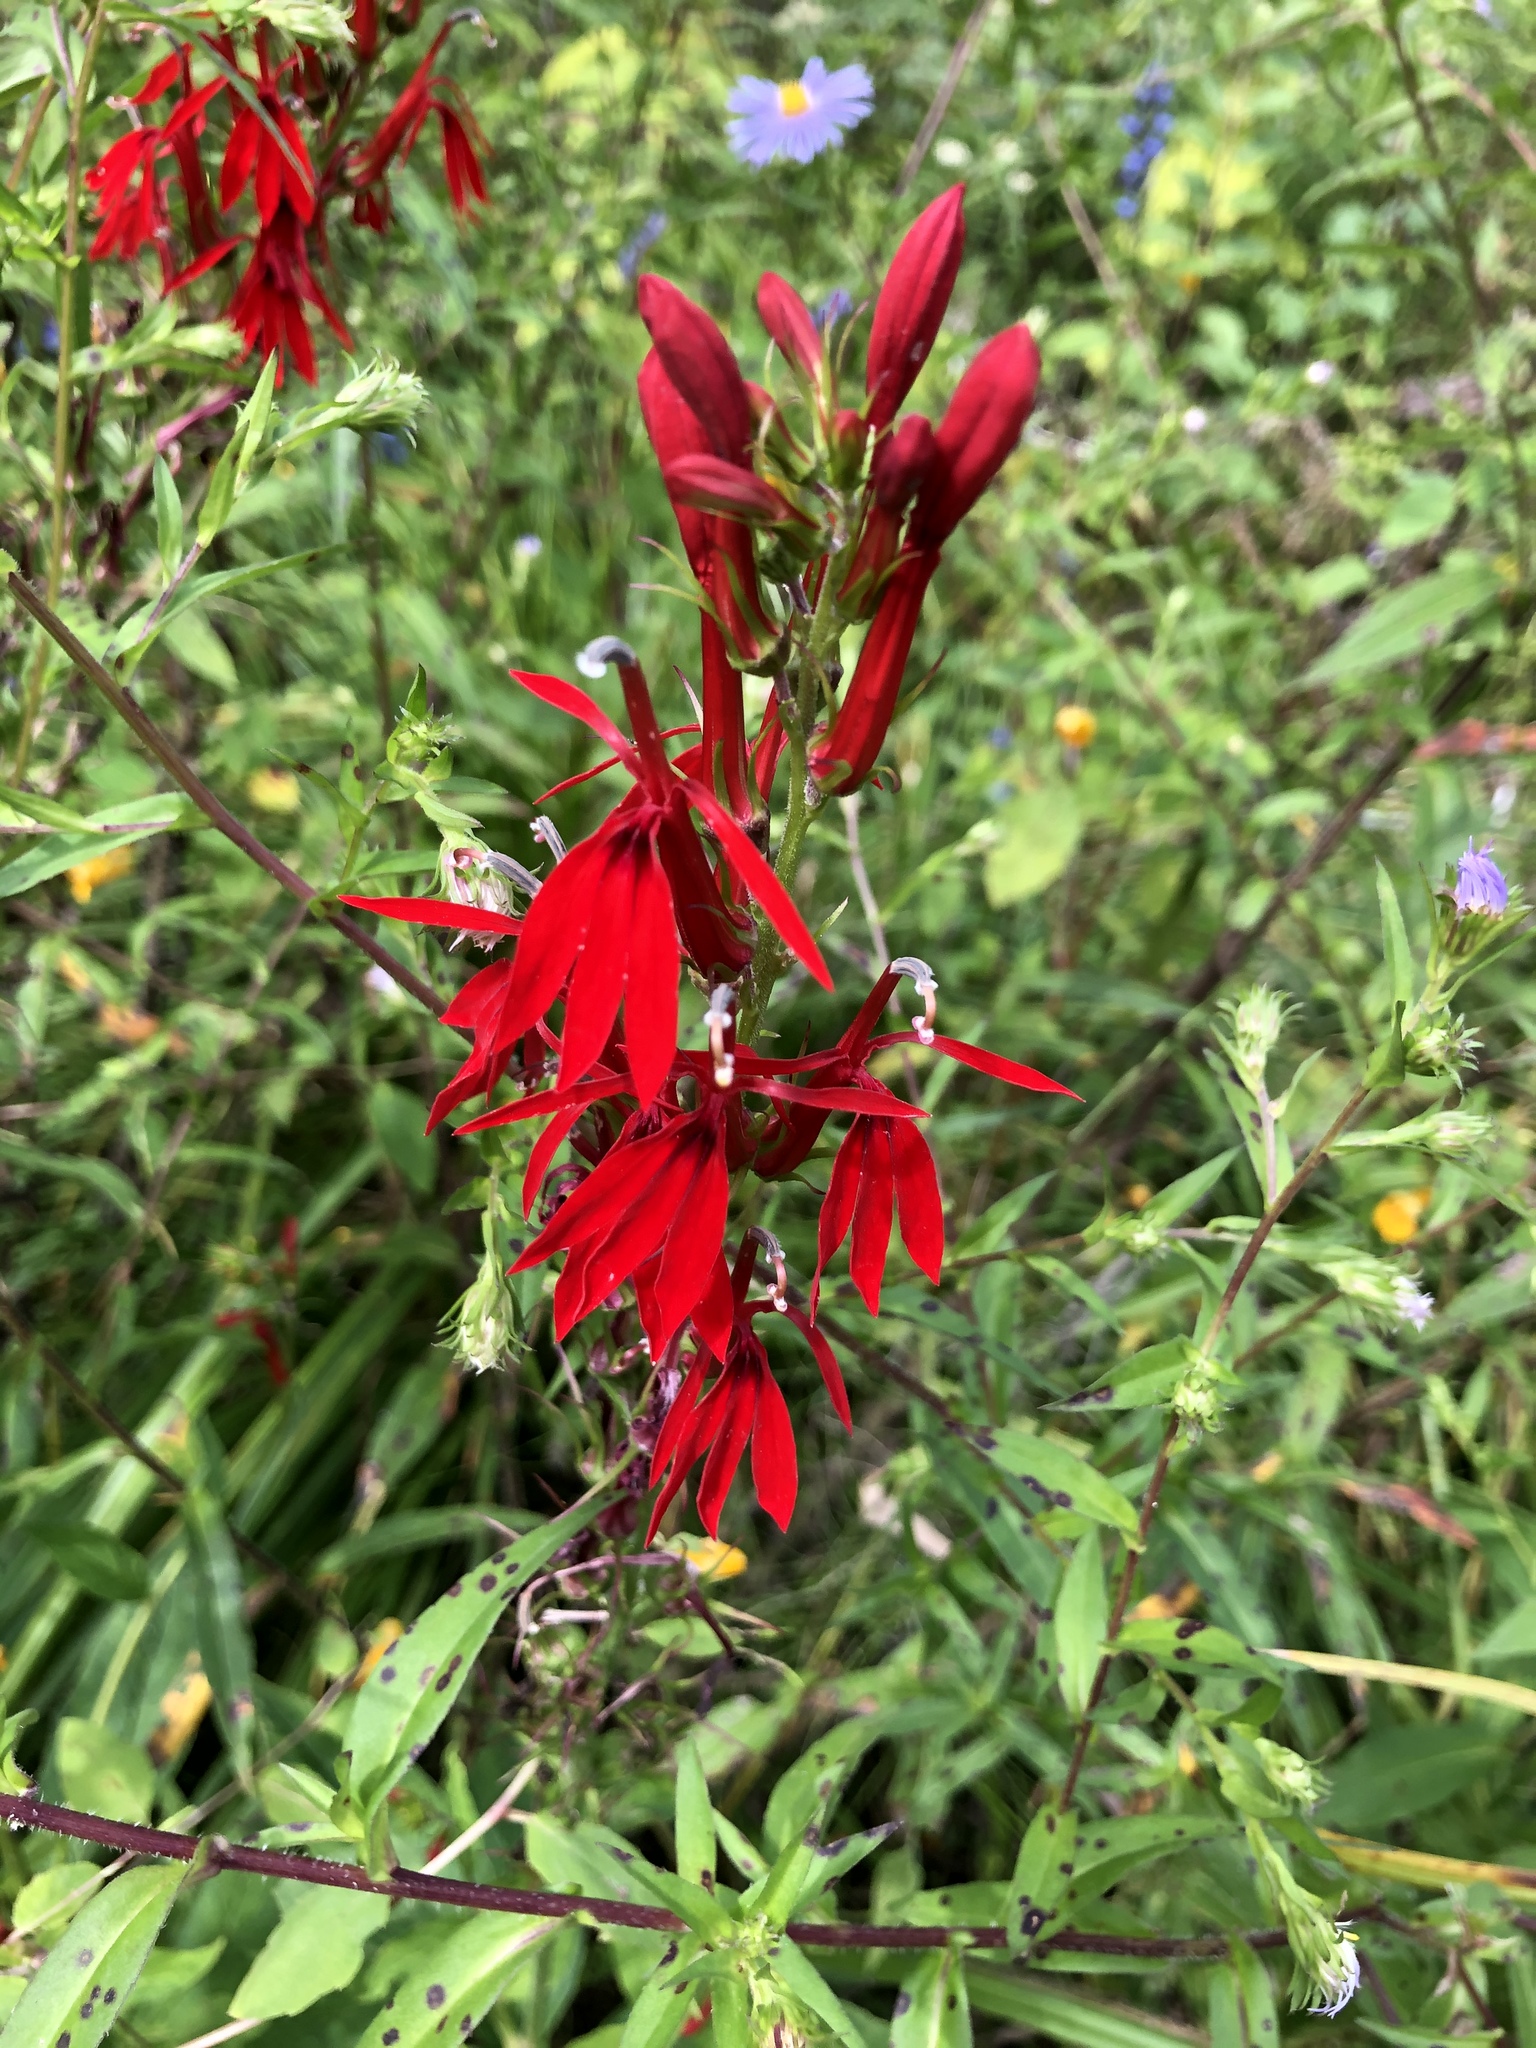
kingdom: Plantae
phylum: Tracheophyta
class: Magnoliopsida
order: Asterales
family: Campanulaceae
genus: Lobelia
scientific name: Lobelia cardinalis
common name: Cardinal flower
